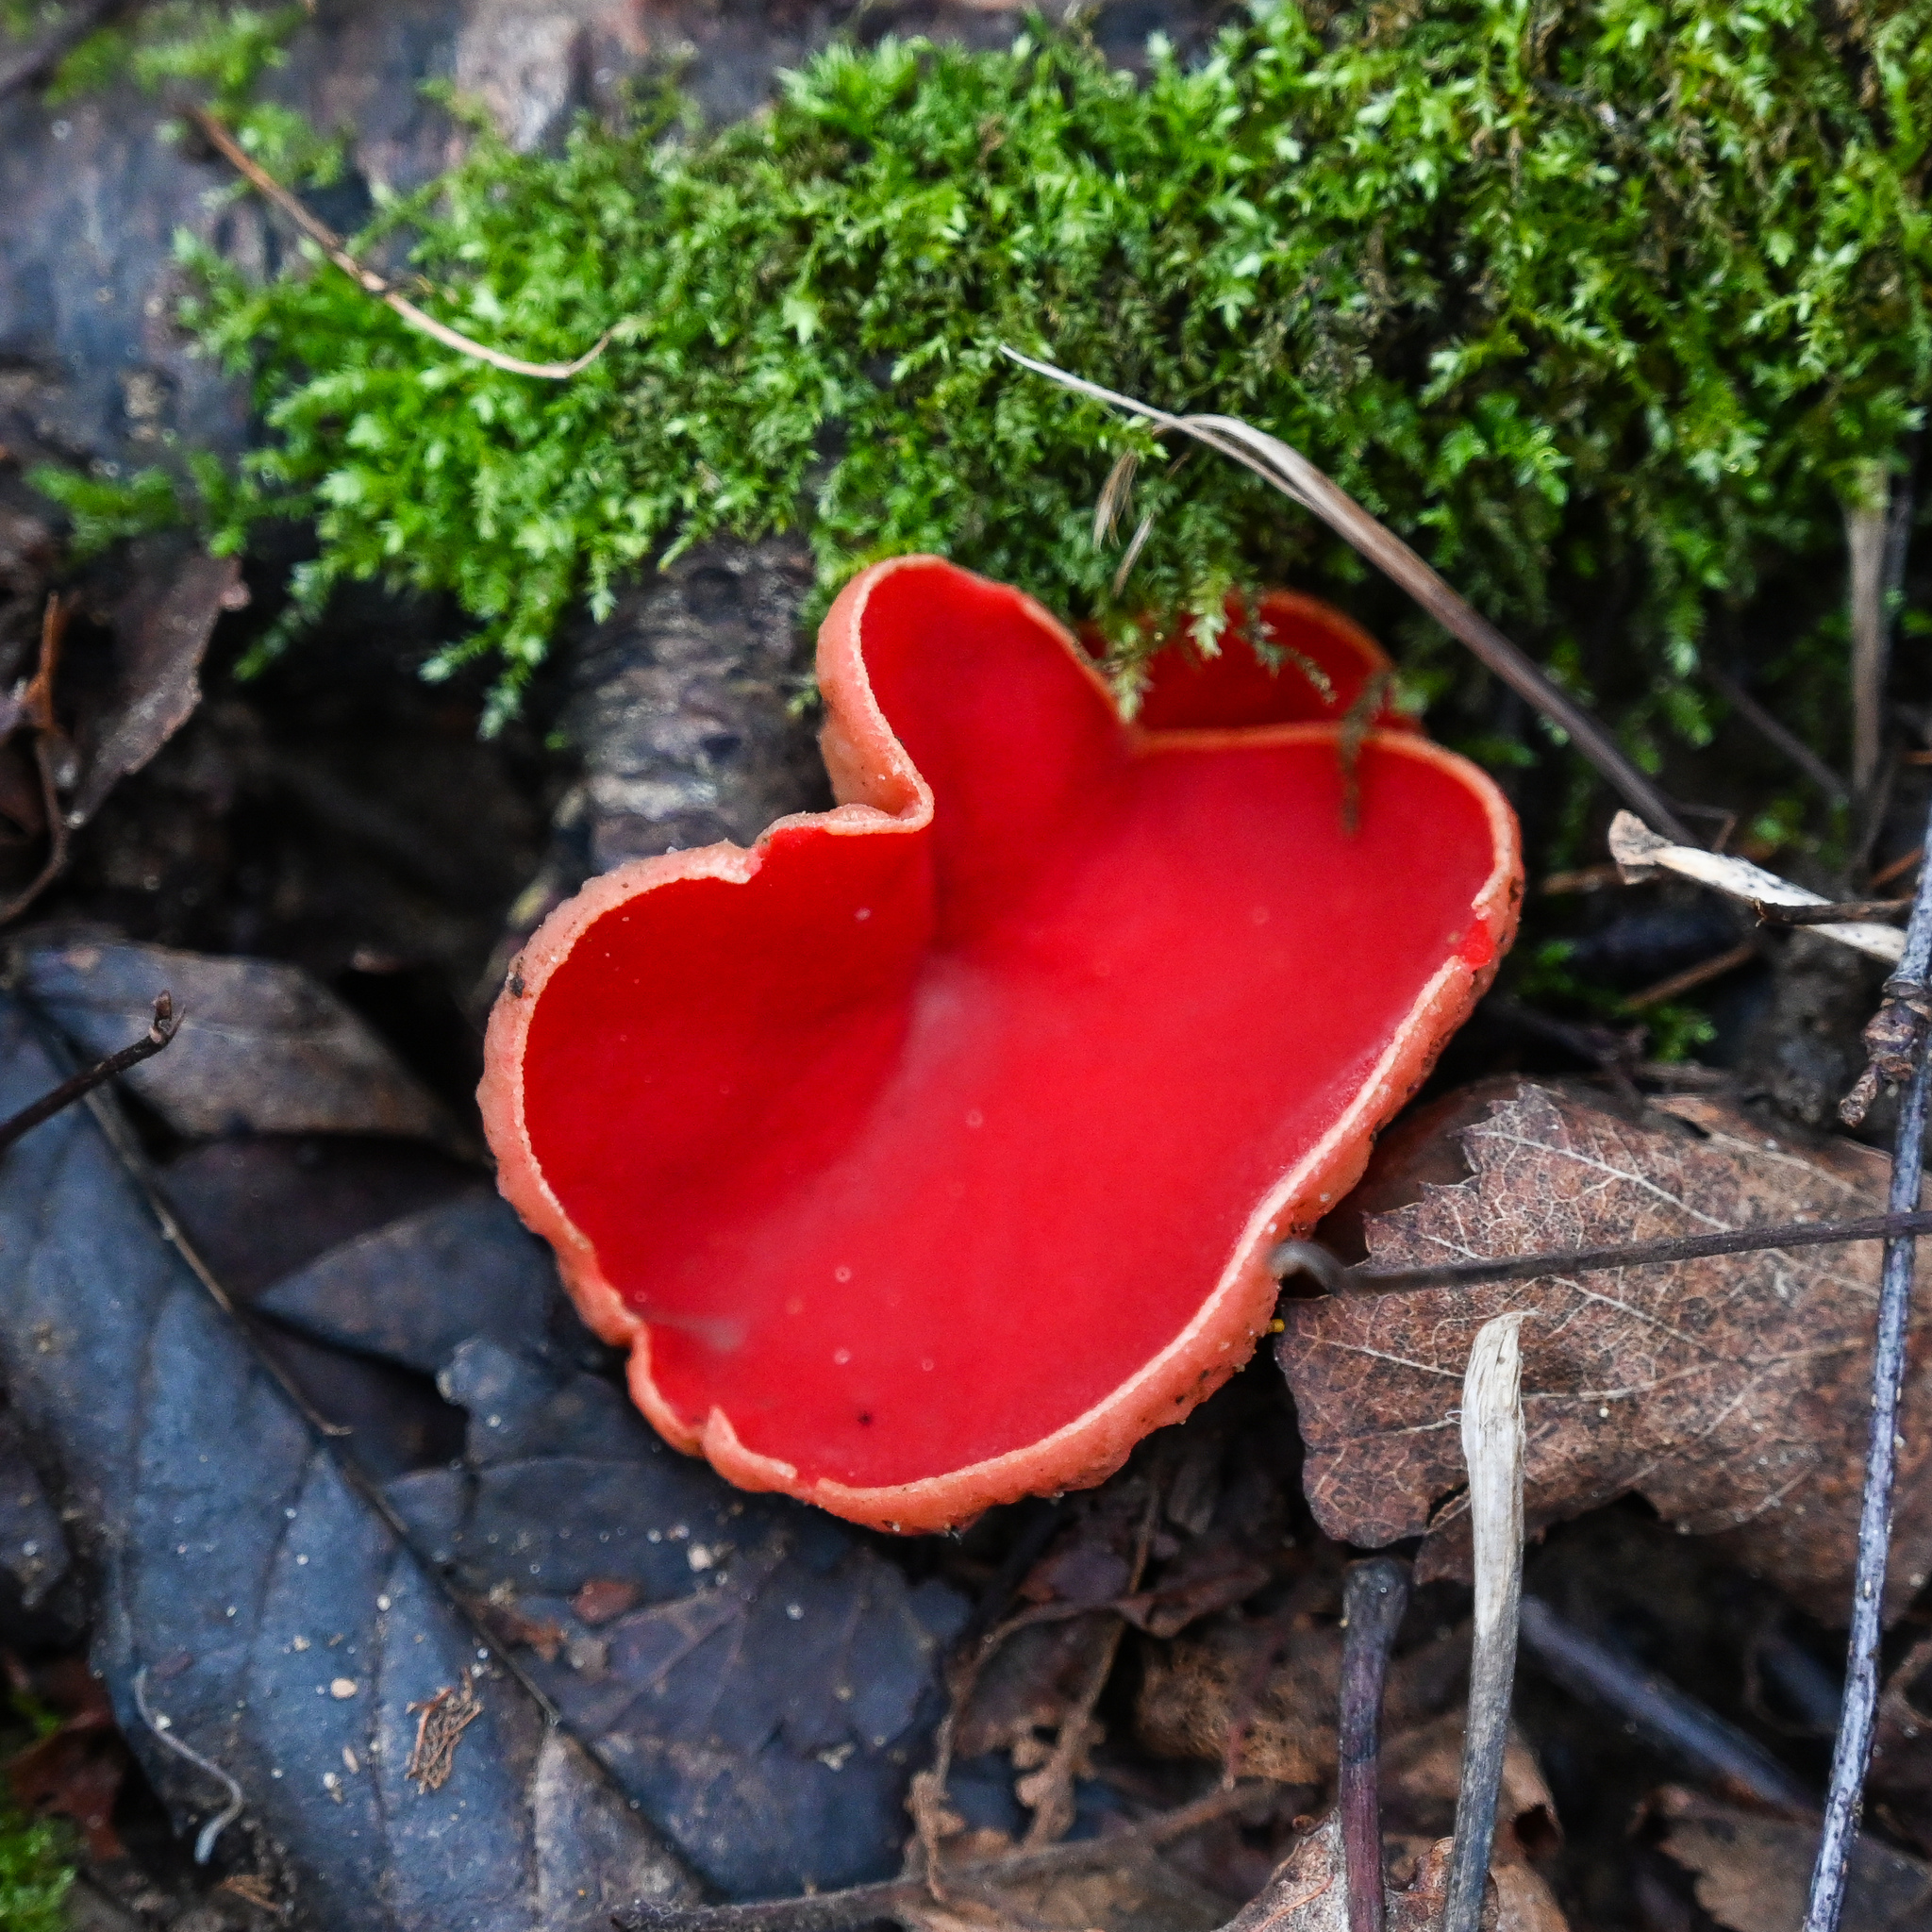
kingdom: Fungi
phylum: Ascomycota
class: Pezizomycetes
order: Pezizales
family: Sarcoscyphaceae
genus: Sarcoscypha
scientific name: Sarcoscypha
